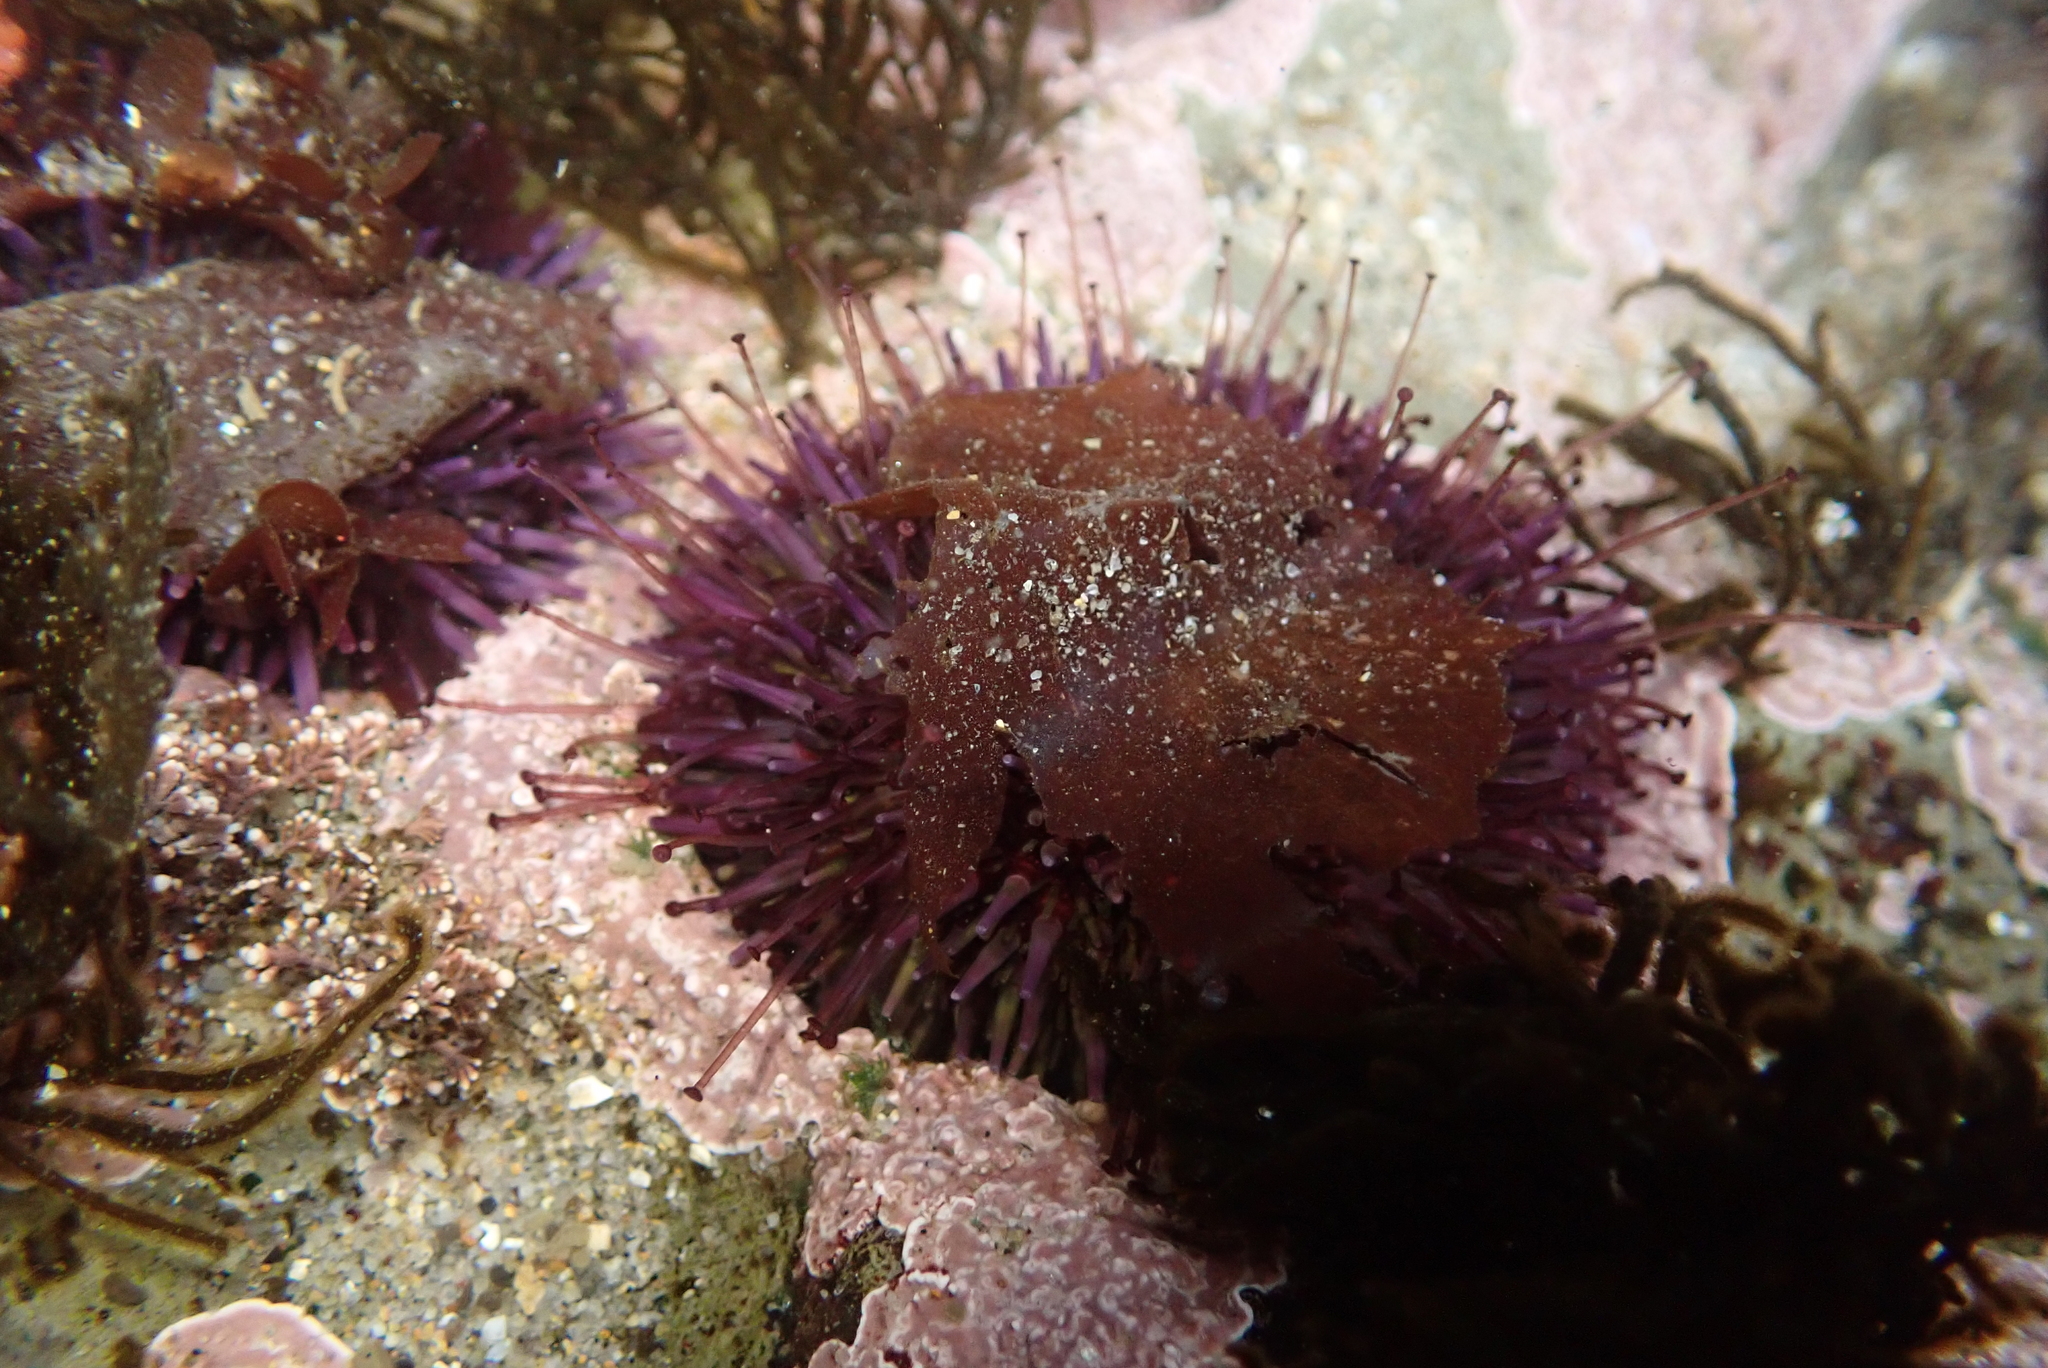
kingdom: Animalia
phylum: Echinodermata
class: Echinoidea
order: Camarodonta
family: Strongylocentrotidae
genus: Strongylocentrotus
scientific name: Strongylocentrotus purpuratus
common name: Purple sea urchin
